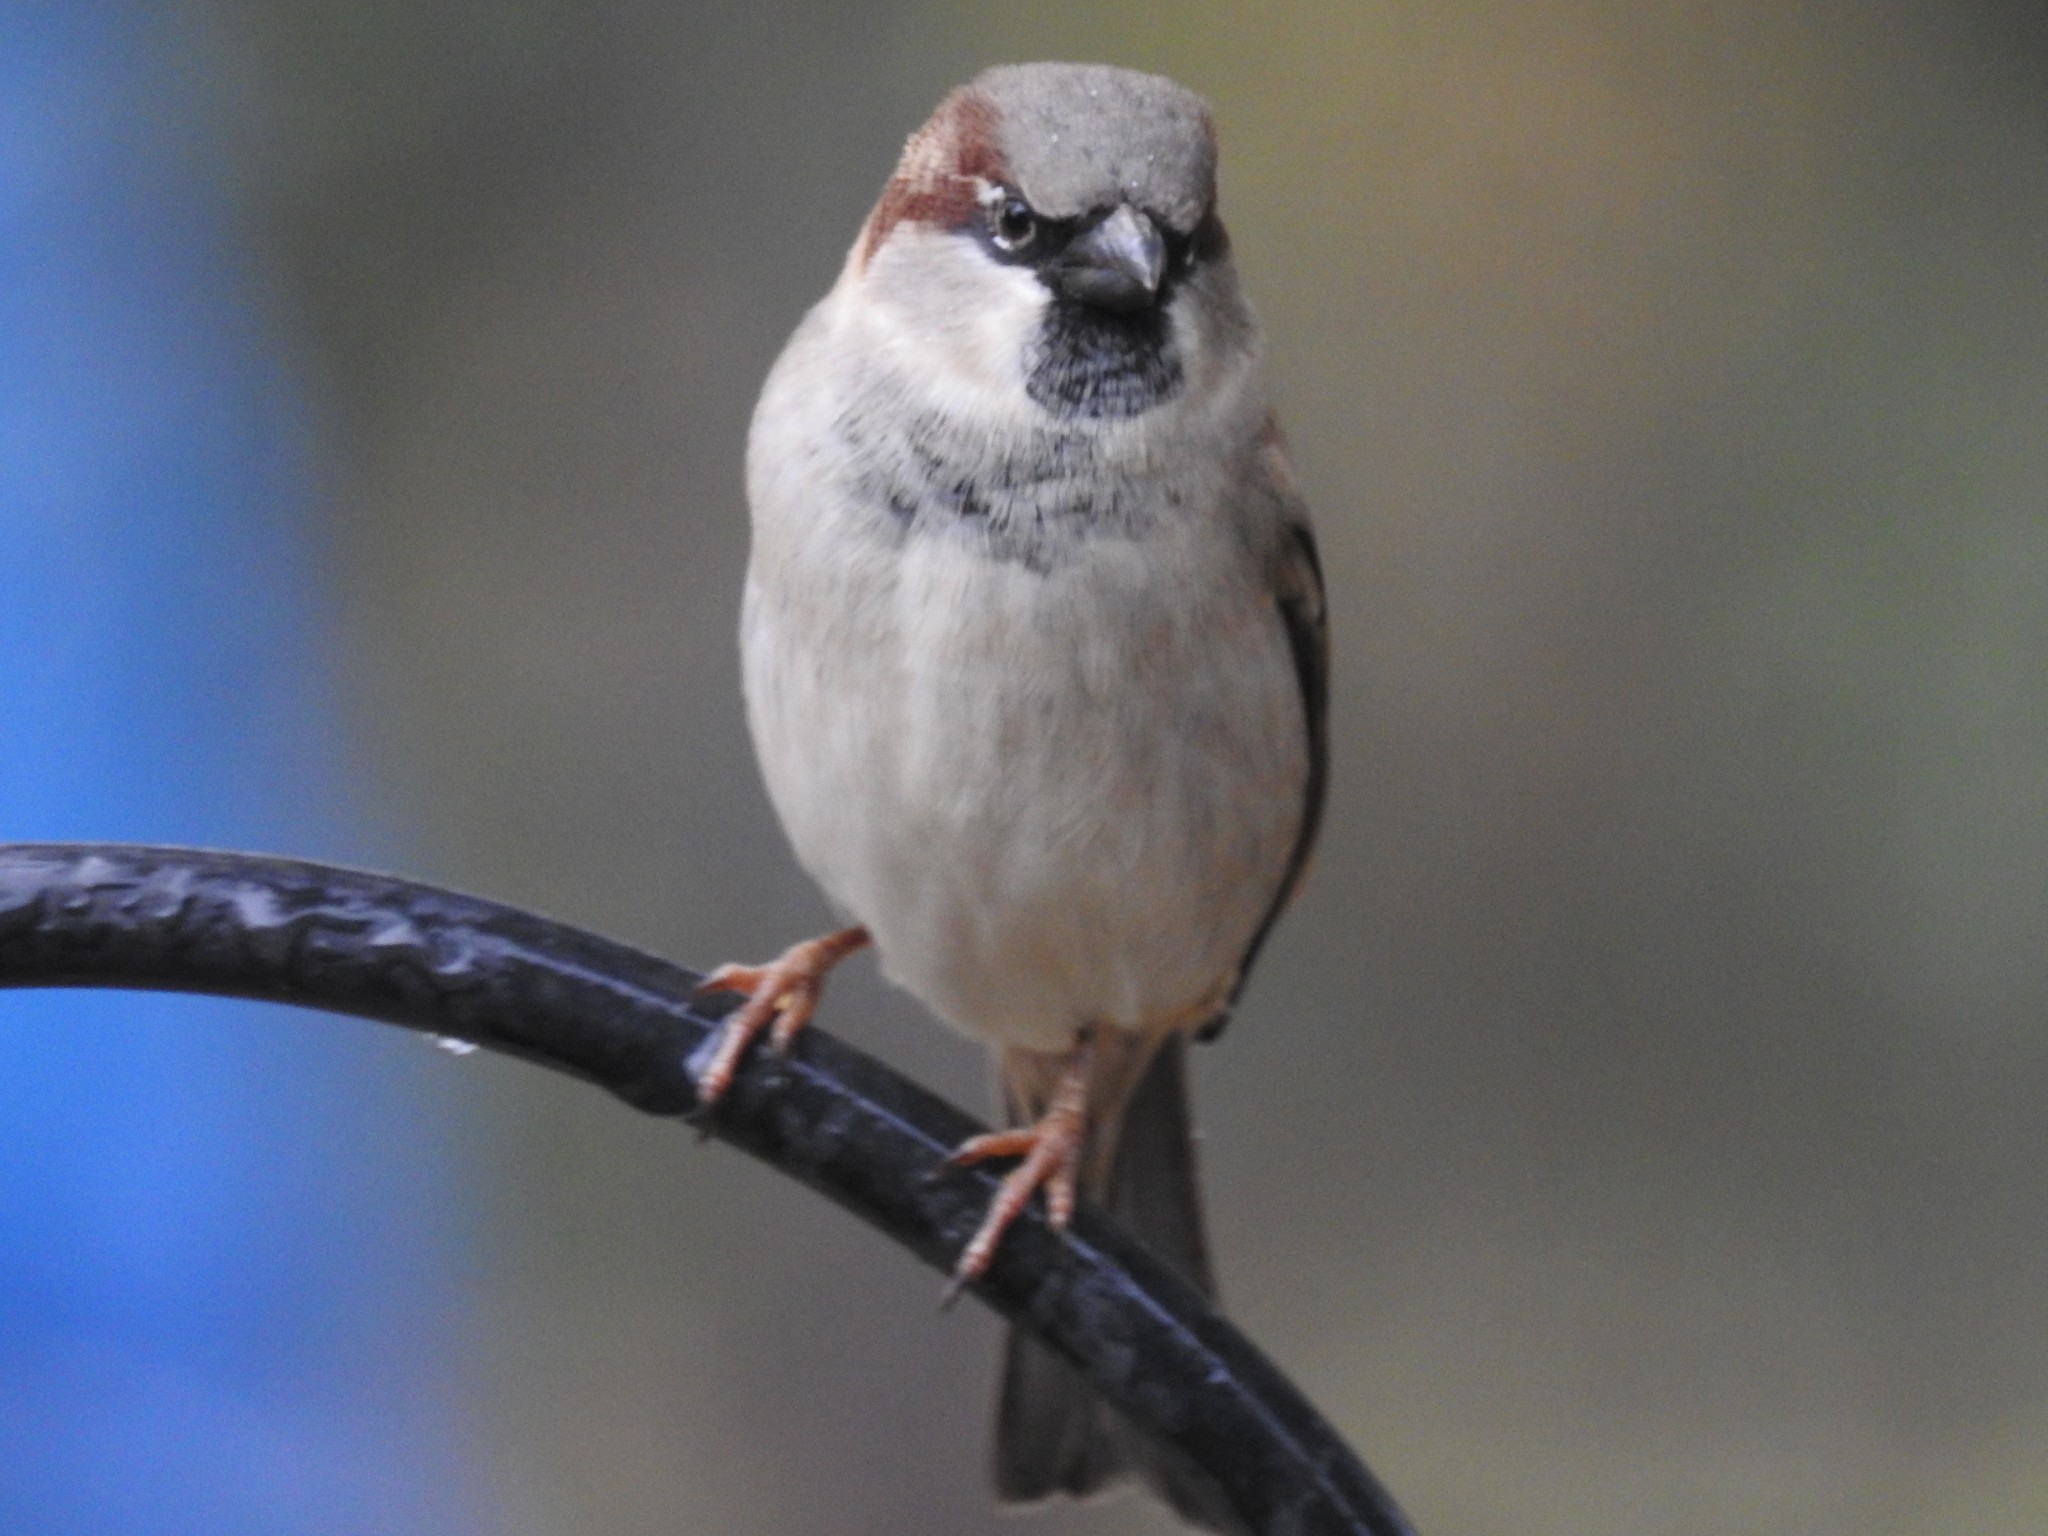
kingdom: Animalia
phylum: Chordata
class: Aves
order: Passeriformes
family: Passeridae
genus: Passer
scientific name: Passer domesticus
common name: House sparrow
